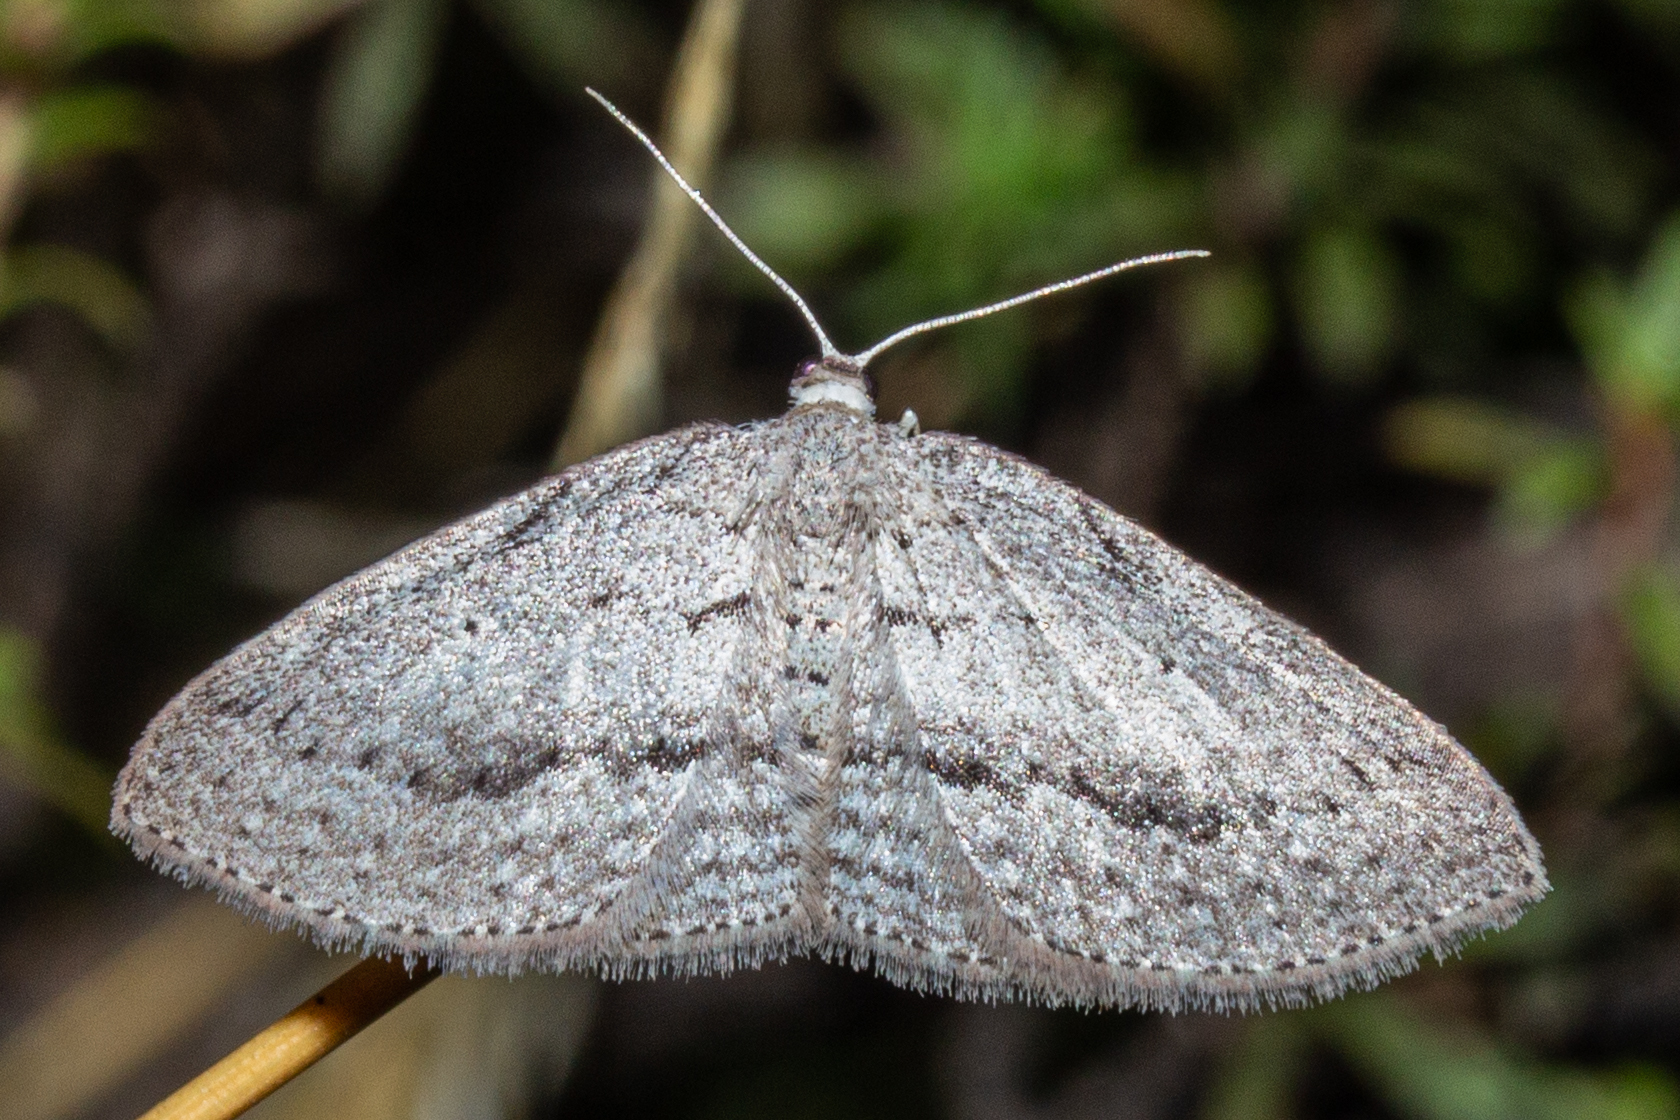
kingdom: Animalia
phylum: Arthropoda
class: Insecta
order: Lepidoptera
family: Geometridae
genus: Poecilasthena
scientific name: Poecilasthena schistaria
